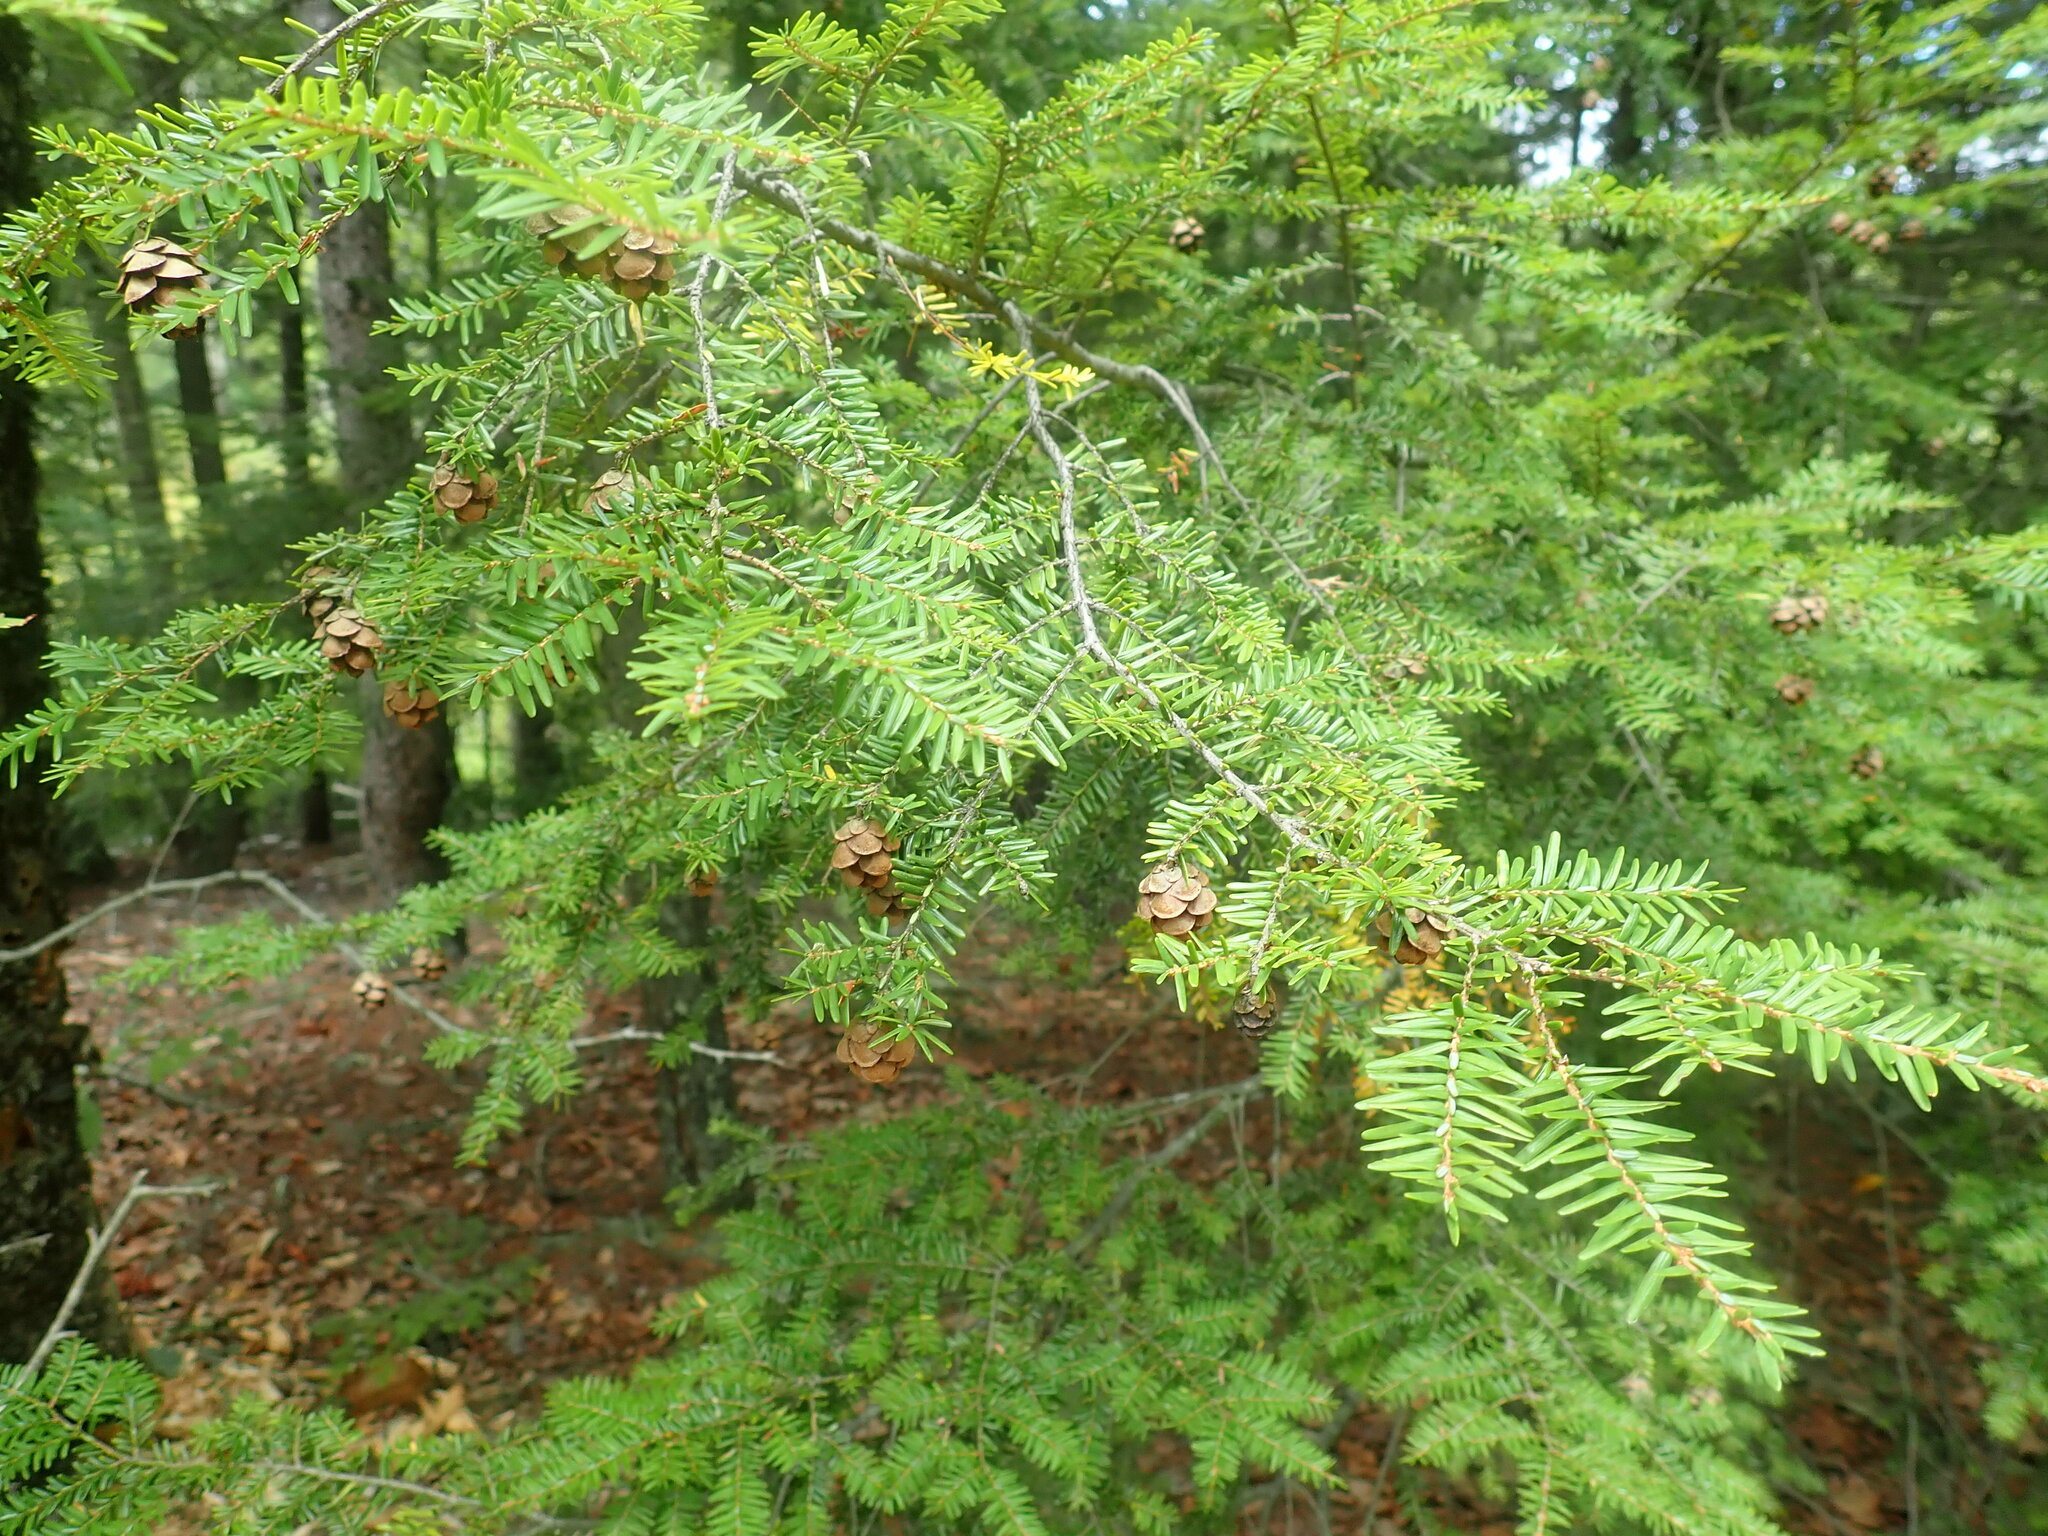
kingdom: Plantae
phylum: Tracheophyta
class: Pinopsida
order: Pinales
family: Pinaceae
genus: Tsuga
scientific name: Tsuga canadensis
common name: Eastern hemlock
